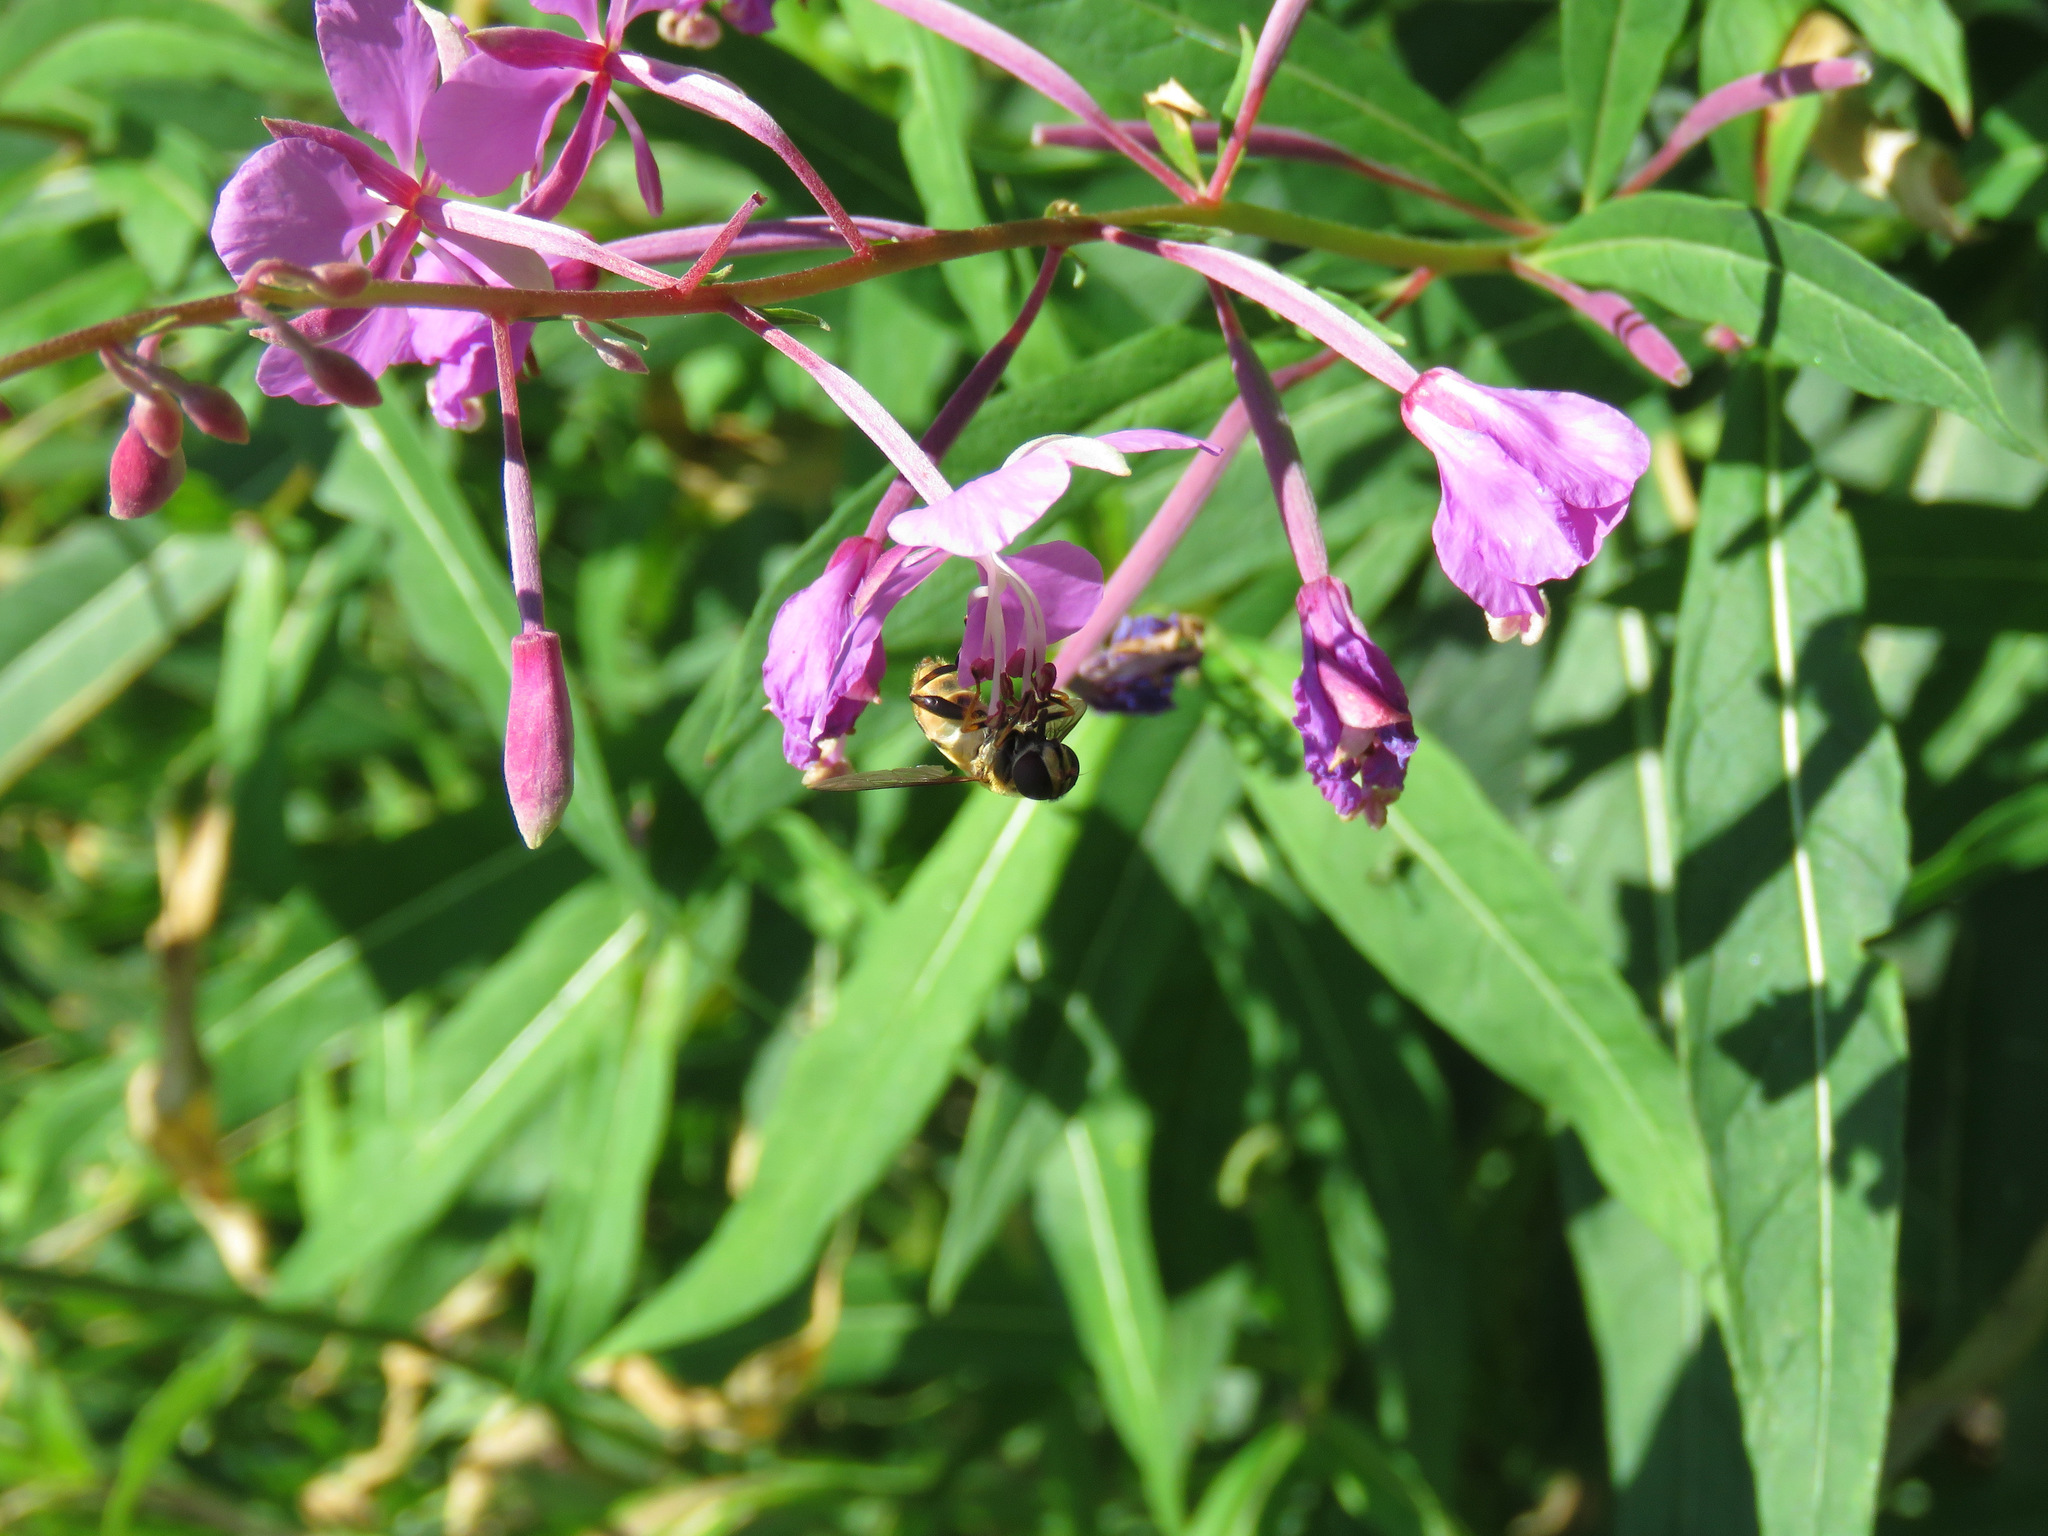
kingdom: Animalia
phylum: Arthropoda
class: Insecta
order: Diptera
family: Syrphidae
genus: Helophilus
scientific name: Helophilus obscurus
